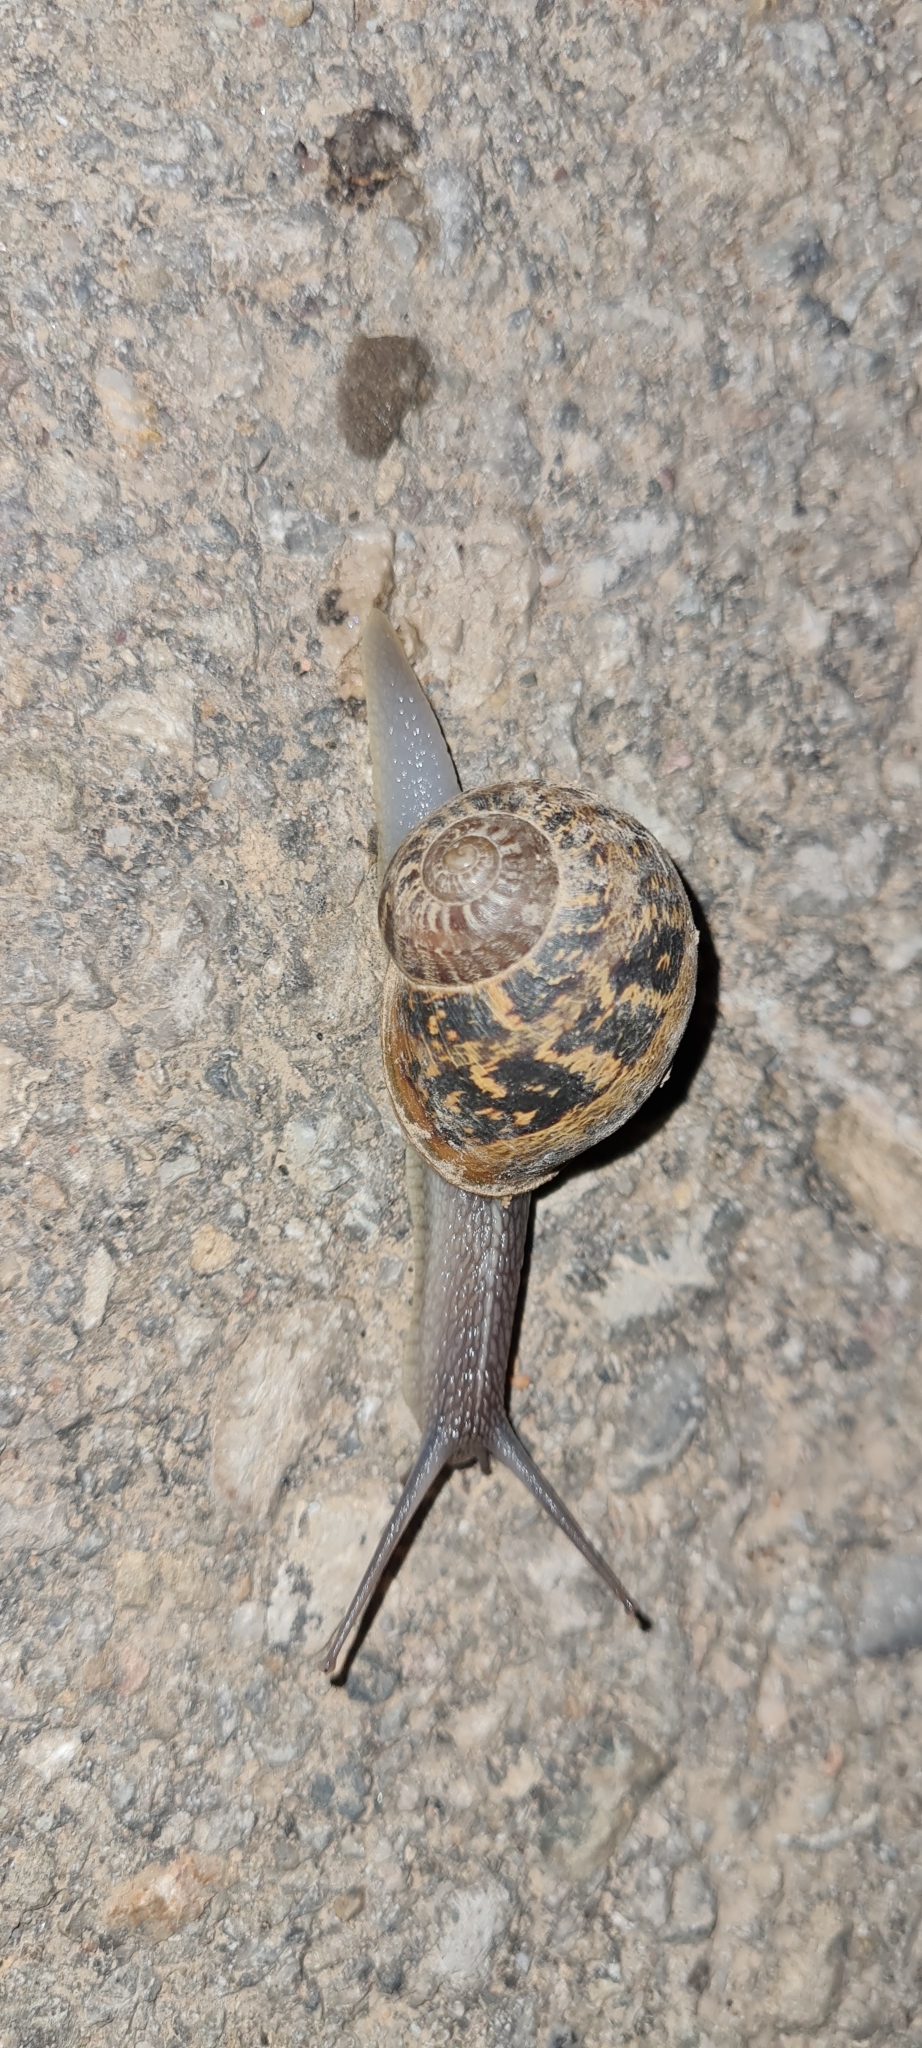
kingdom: Animalia
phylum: Mollusca
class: Gastropoda
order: Stylommatophora
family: Helicidae
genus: Cornu
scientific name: Cornu aspersum
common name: Brown garden snail
